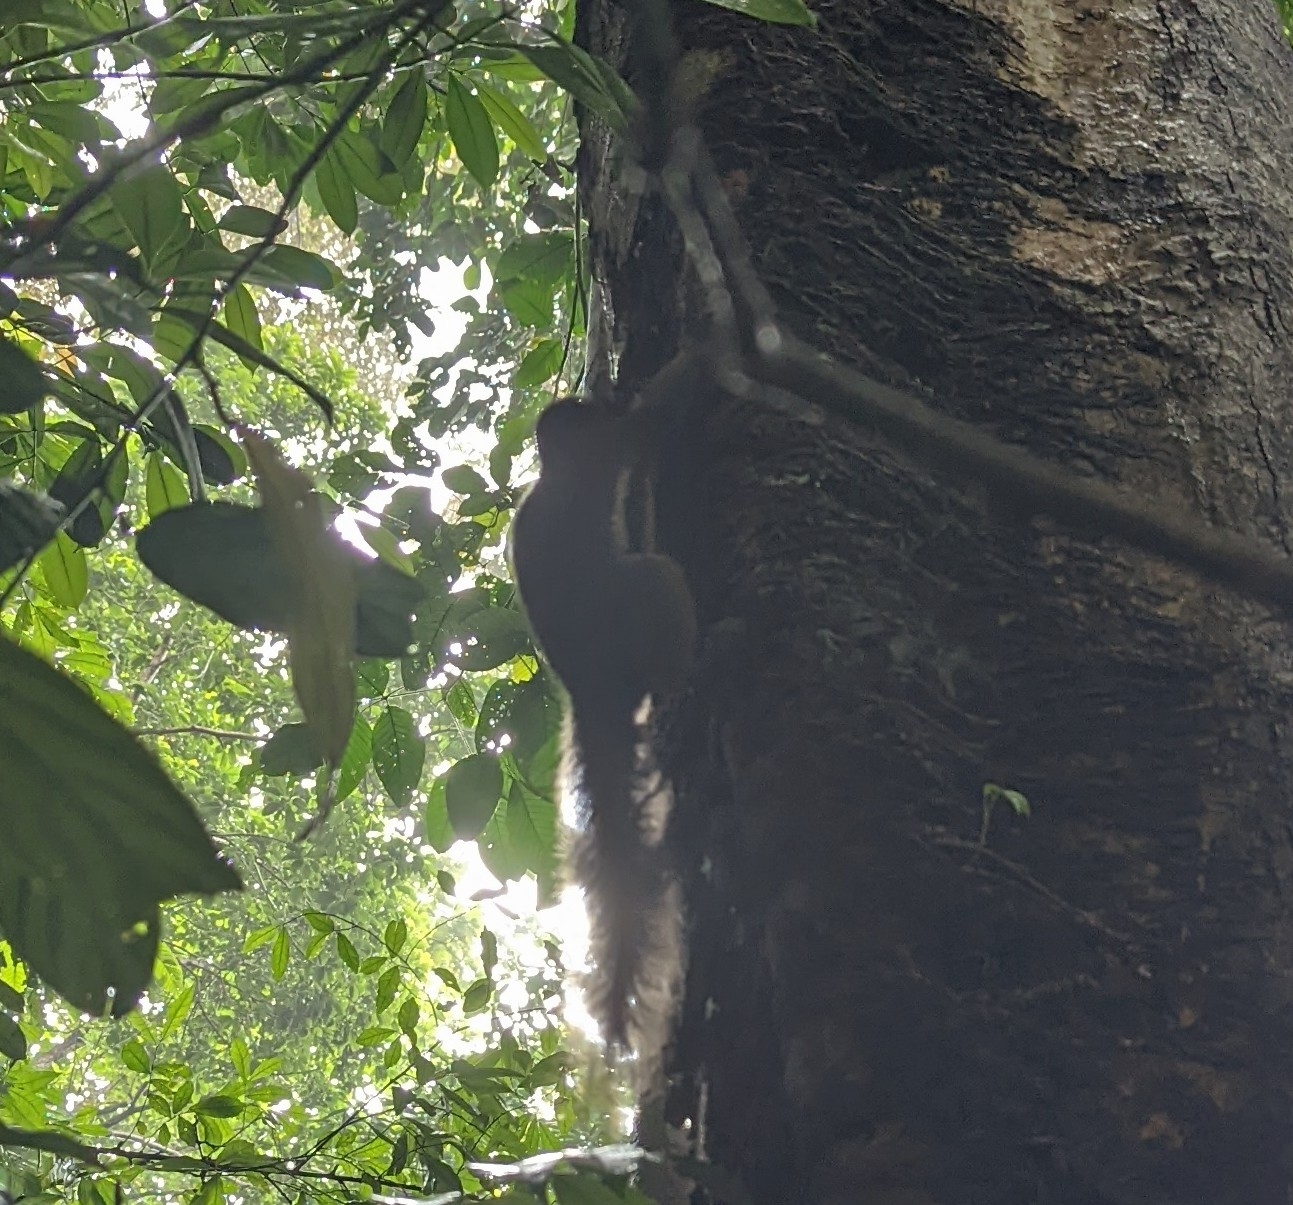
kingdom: Animalia
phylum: Chordata
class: Mammalia
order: Rodentia
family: Sciuridae
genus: Callosciurus
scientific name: Callosciurus notatus
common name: Plantain squirrel
